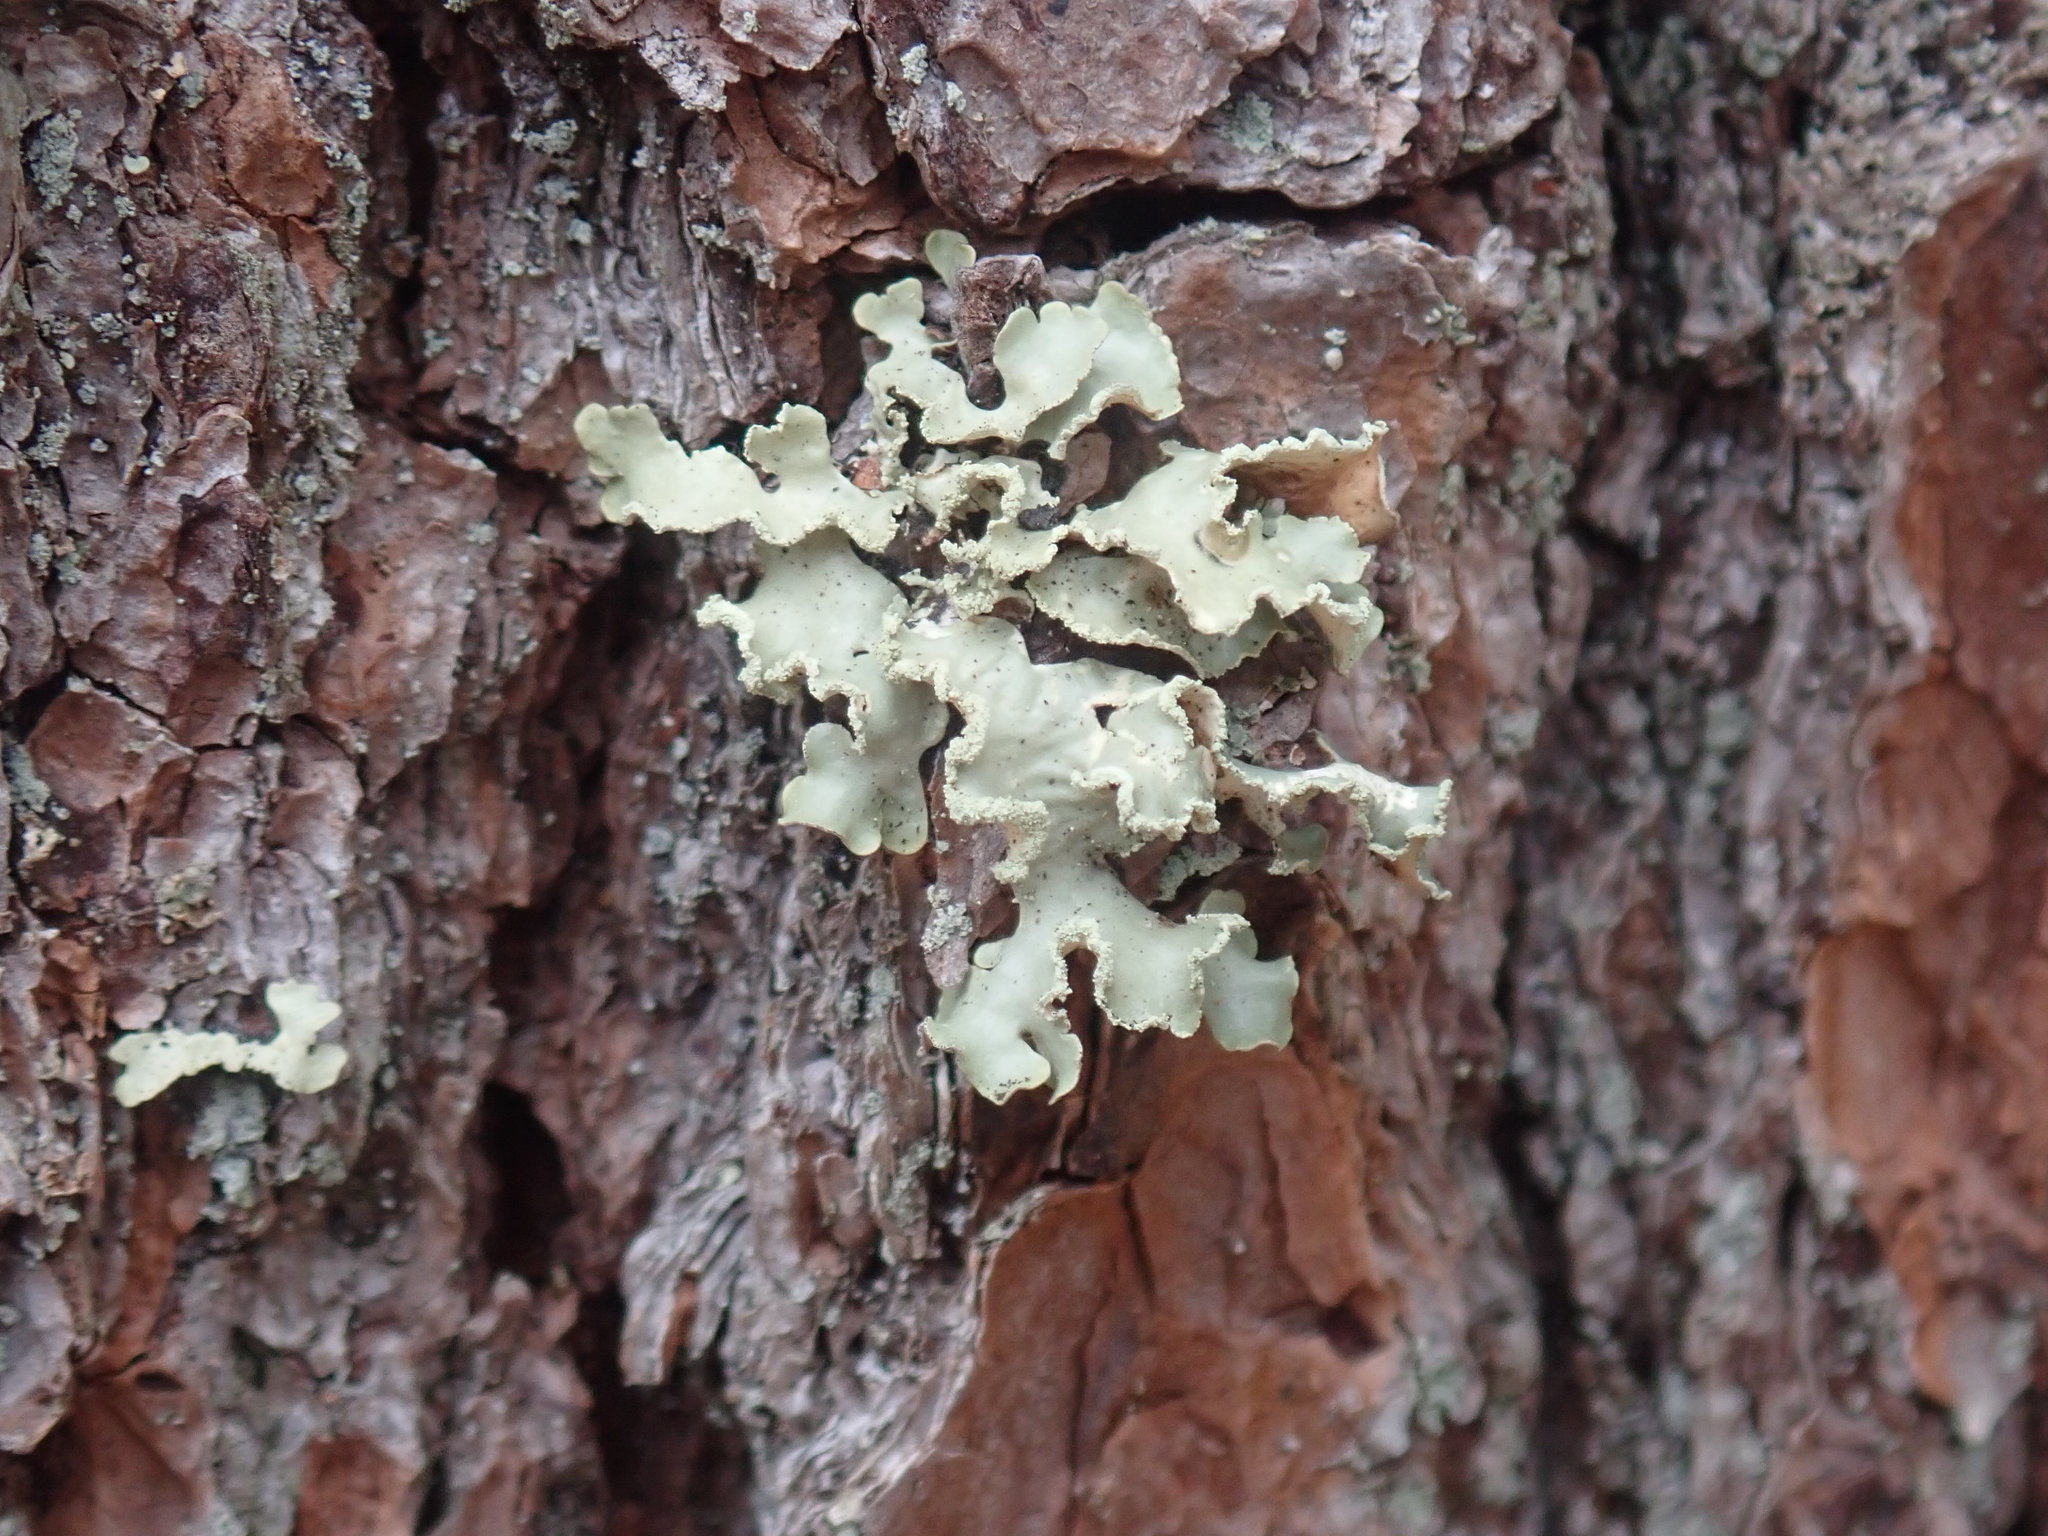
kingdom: Fungi
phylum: Ascomycota
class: Lecanoromycetes
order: Lecanorales
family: Parmeliaceae
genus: Usnocetraria
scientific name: Usnocetraria oakesiana
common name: Yellow ribbon lichen
